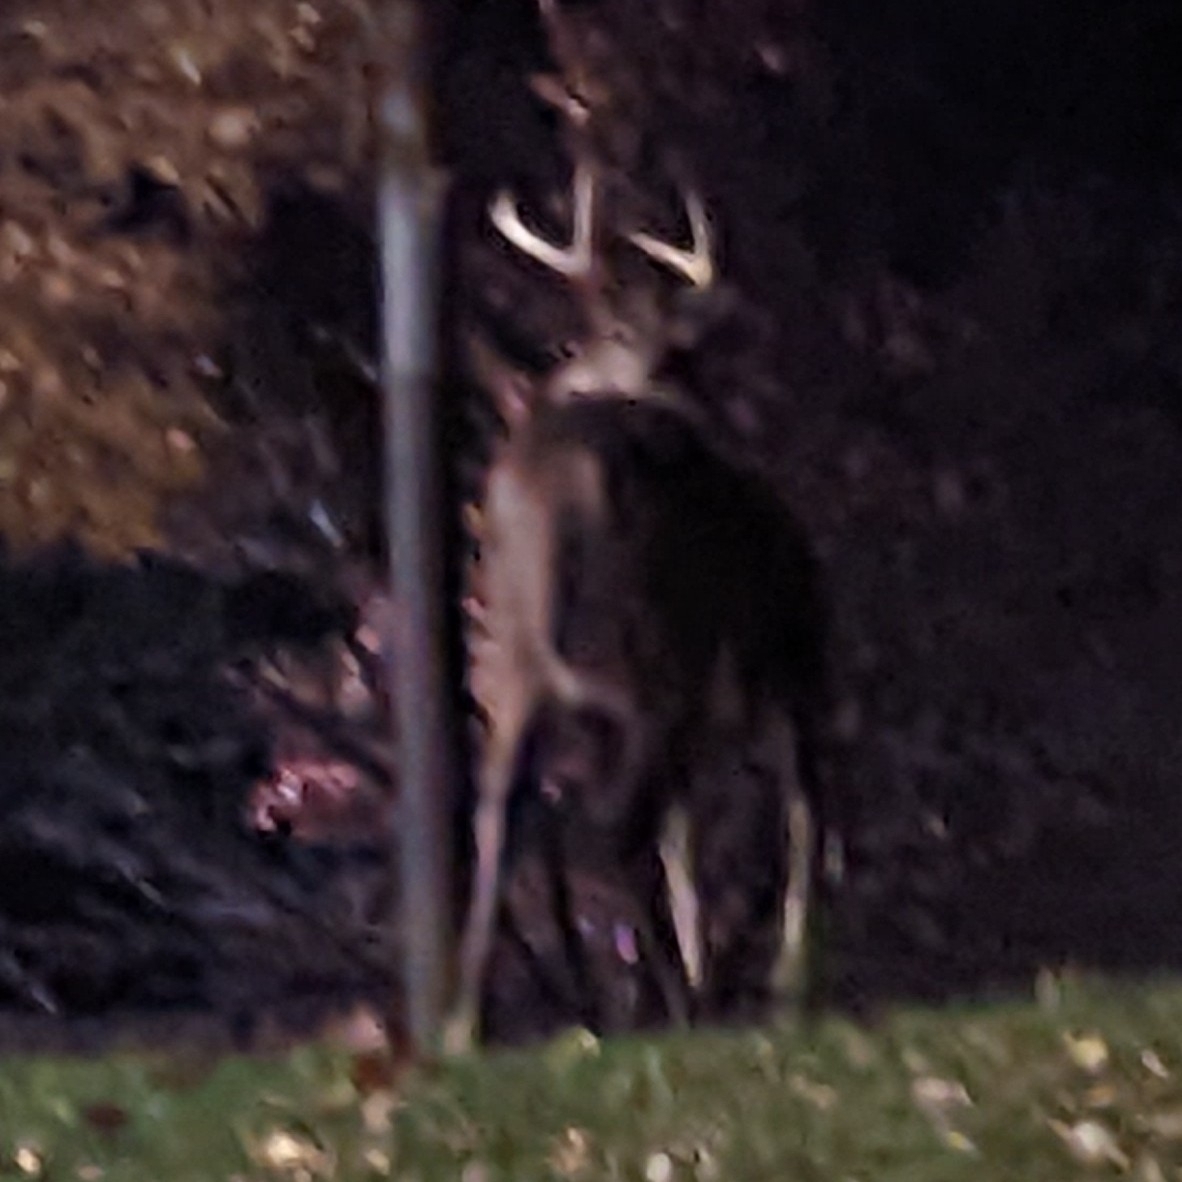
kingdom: Animalia
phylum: Chordata
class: Mammalia
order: Artiodactyla
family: Cervidae
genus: Odocoileus
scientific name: Odocoileus virginianus
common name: White-tailed deer
